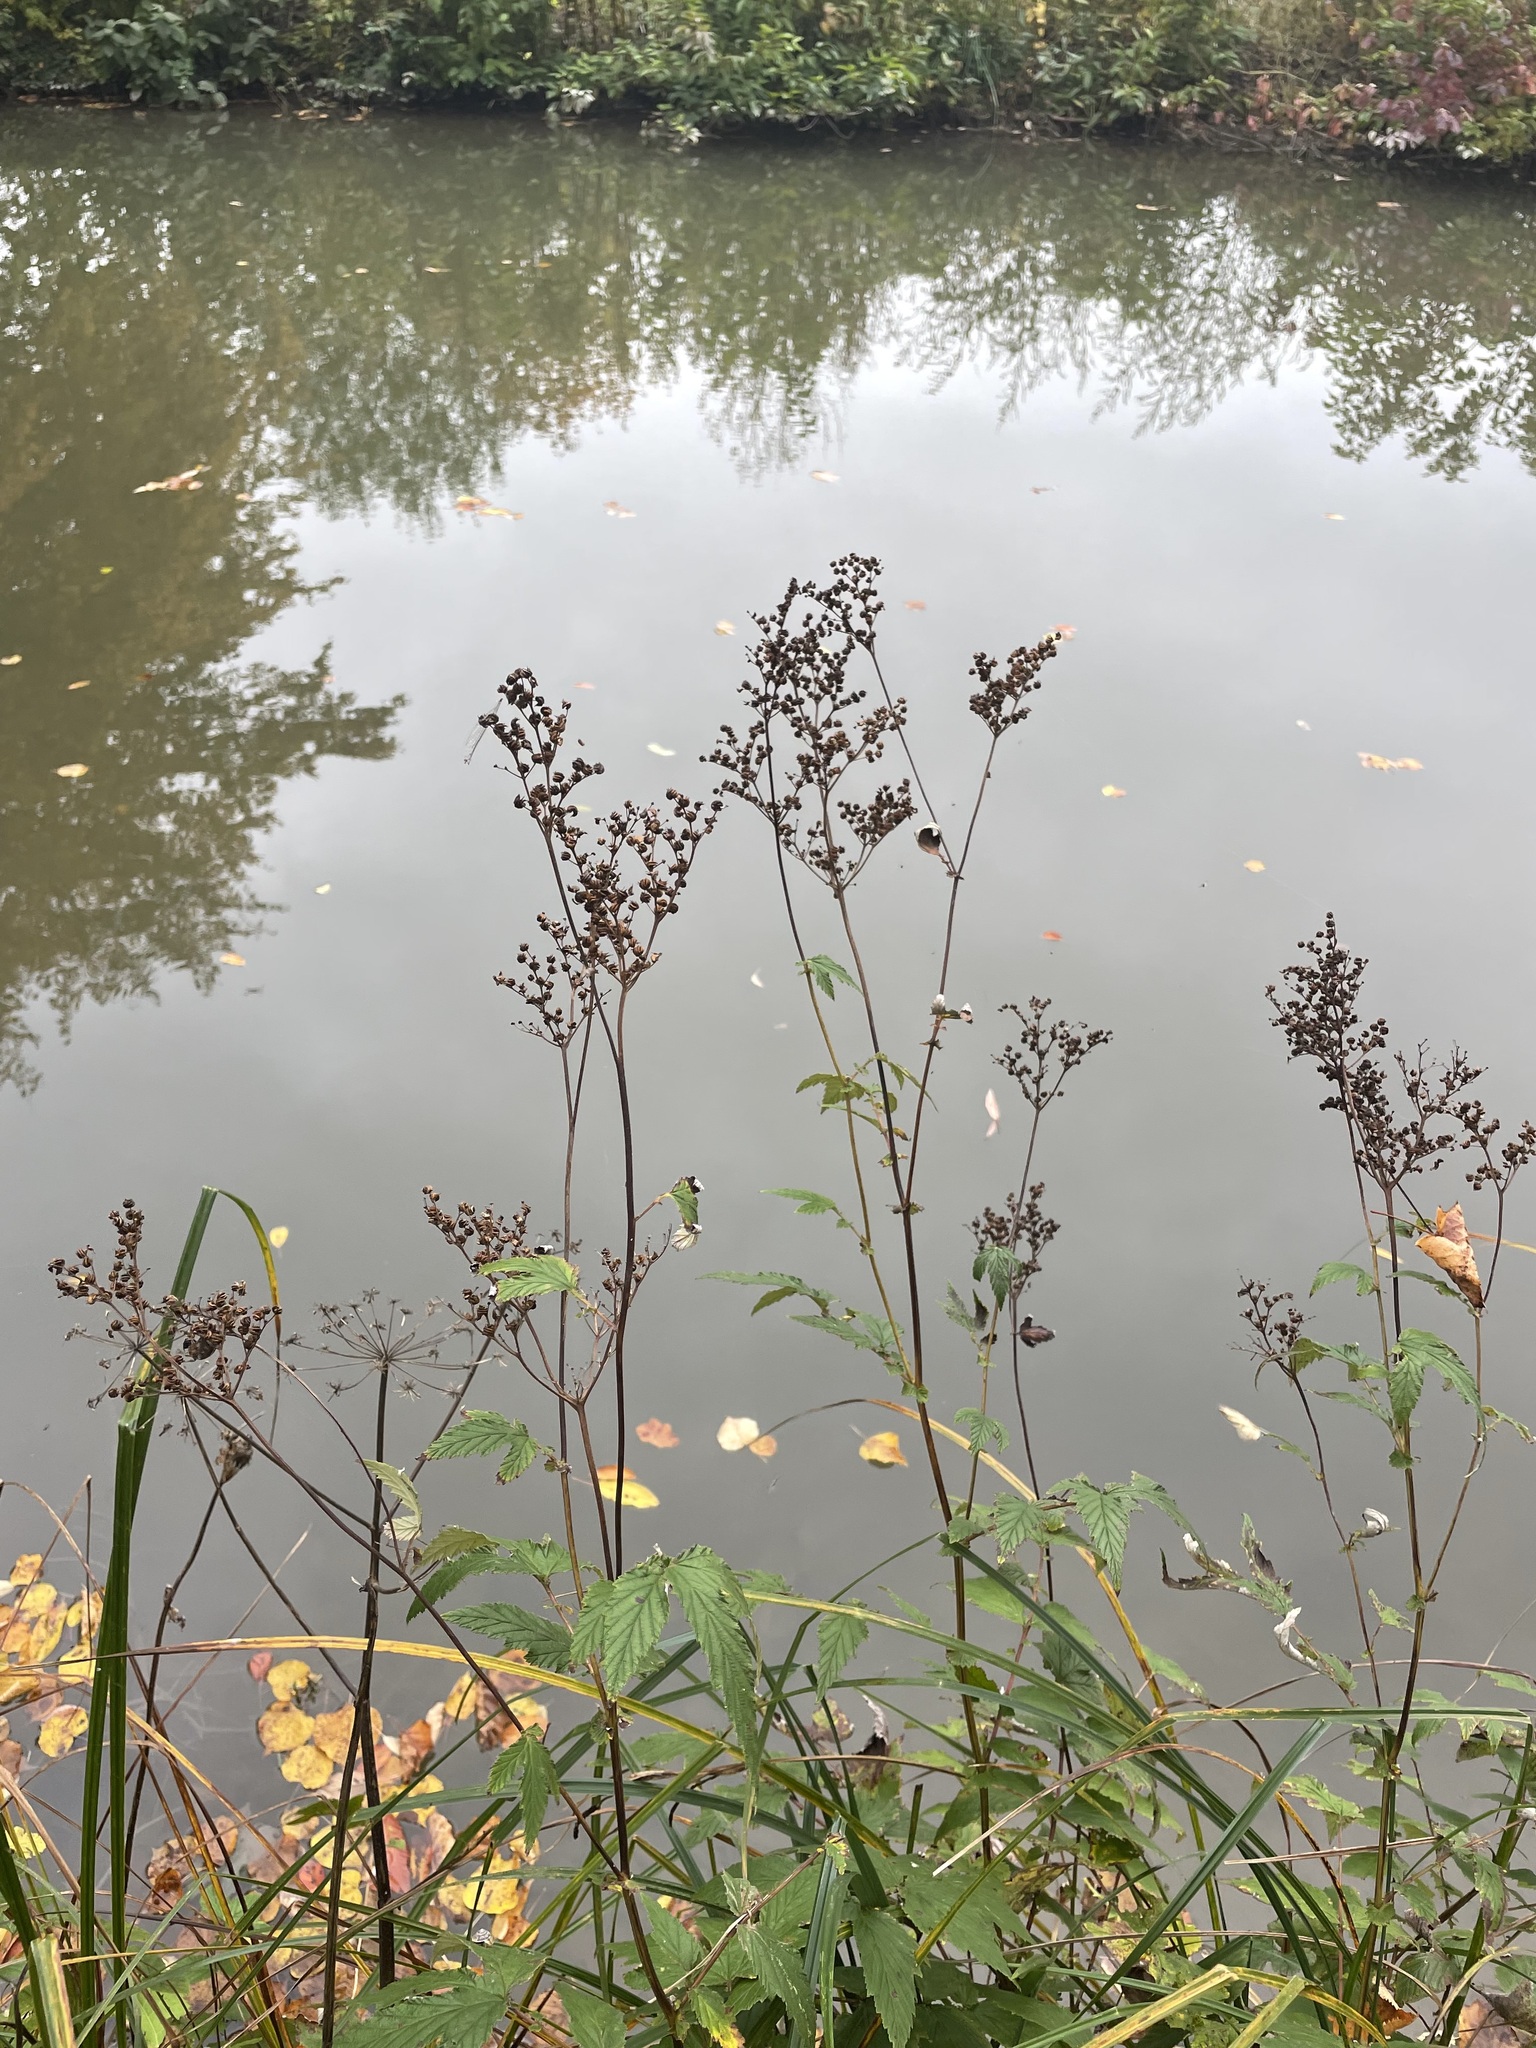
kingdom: Plantae
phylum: Tracheophyta
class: Magnoliopsida
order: Rosales
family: Rosaceae
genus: Filipendula
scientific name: Filipendula ulmaria
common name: Meadowsweet
